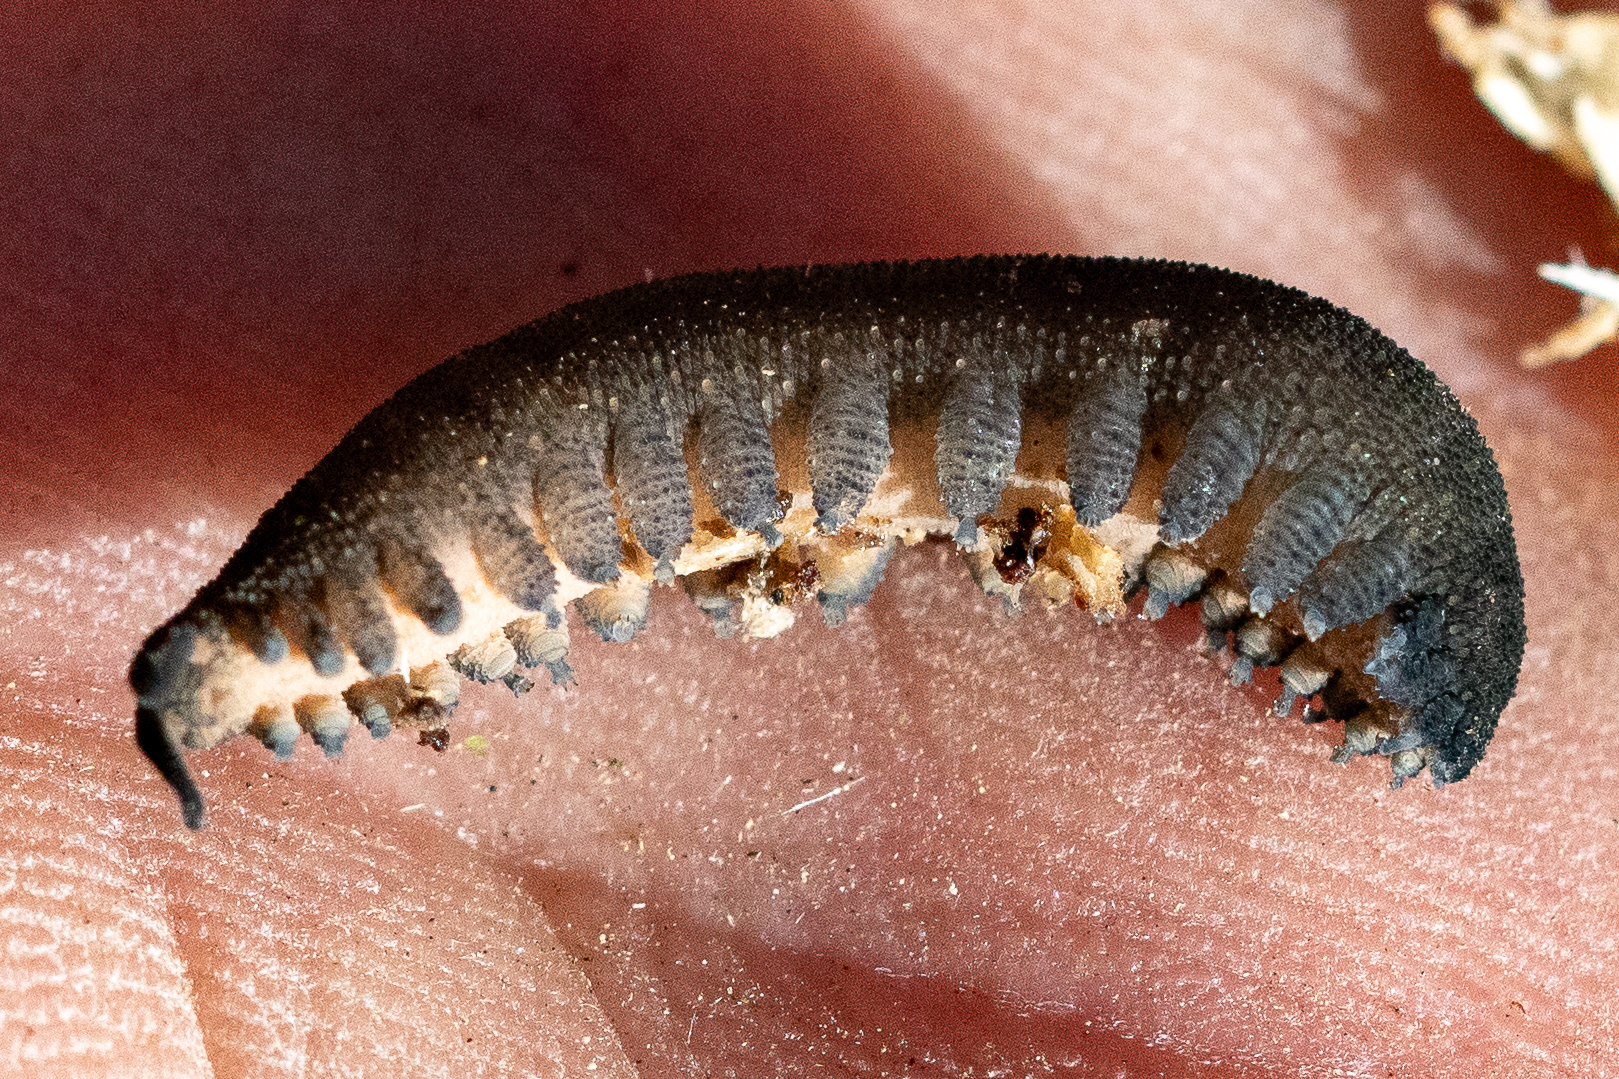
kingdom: Animalia
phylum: Onychophora
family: Peripatopsidae
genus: Peripatopsis
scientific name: Peripatopsis overbergiensis
